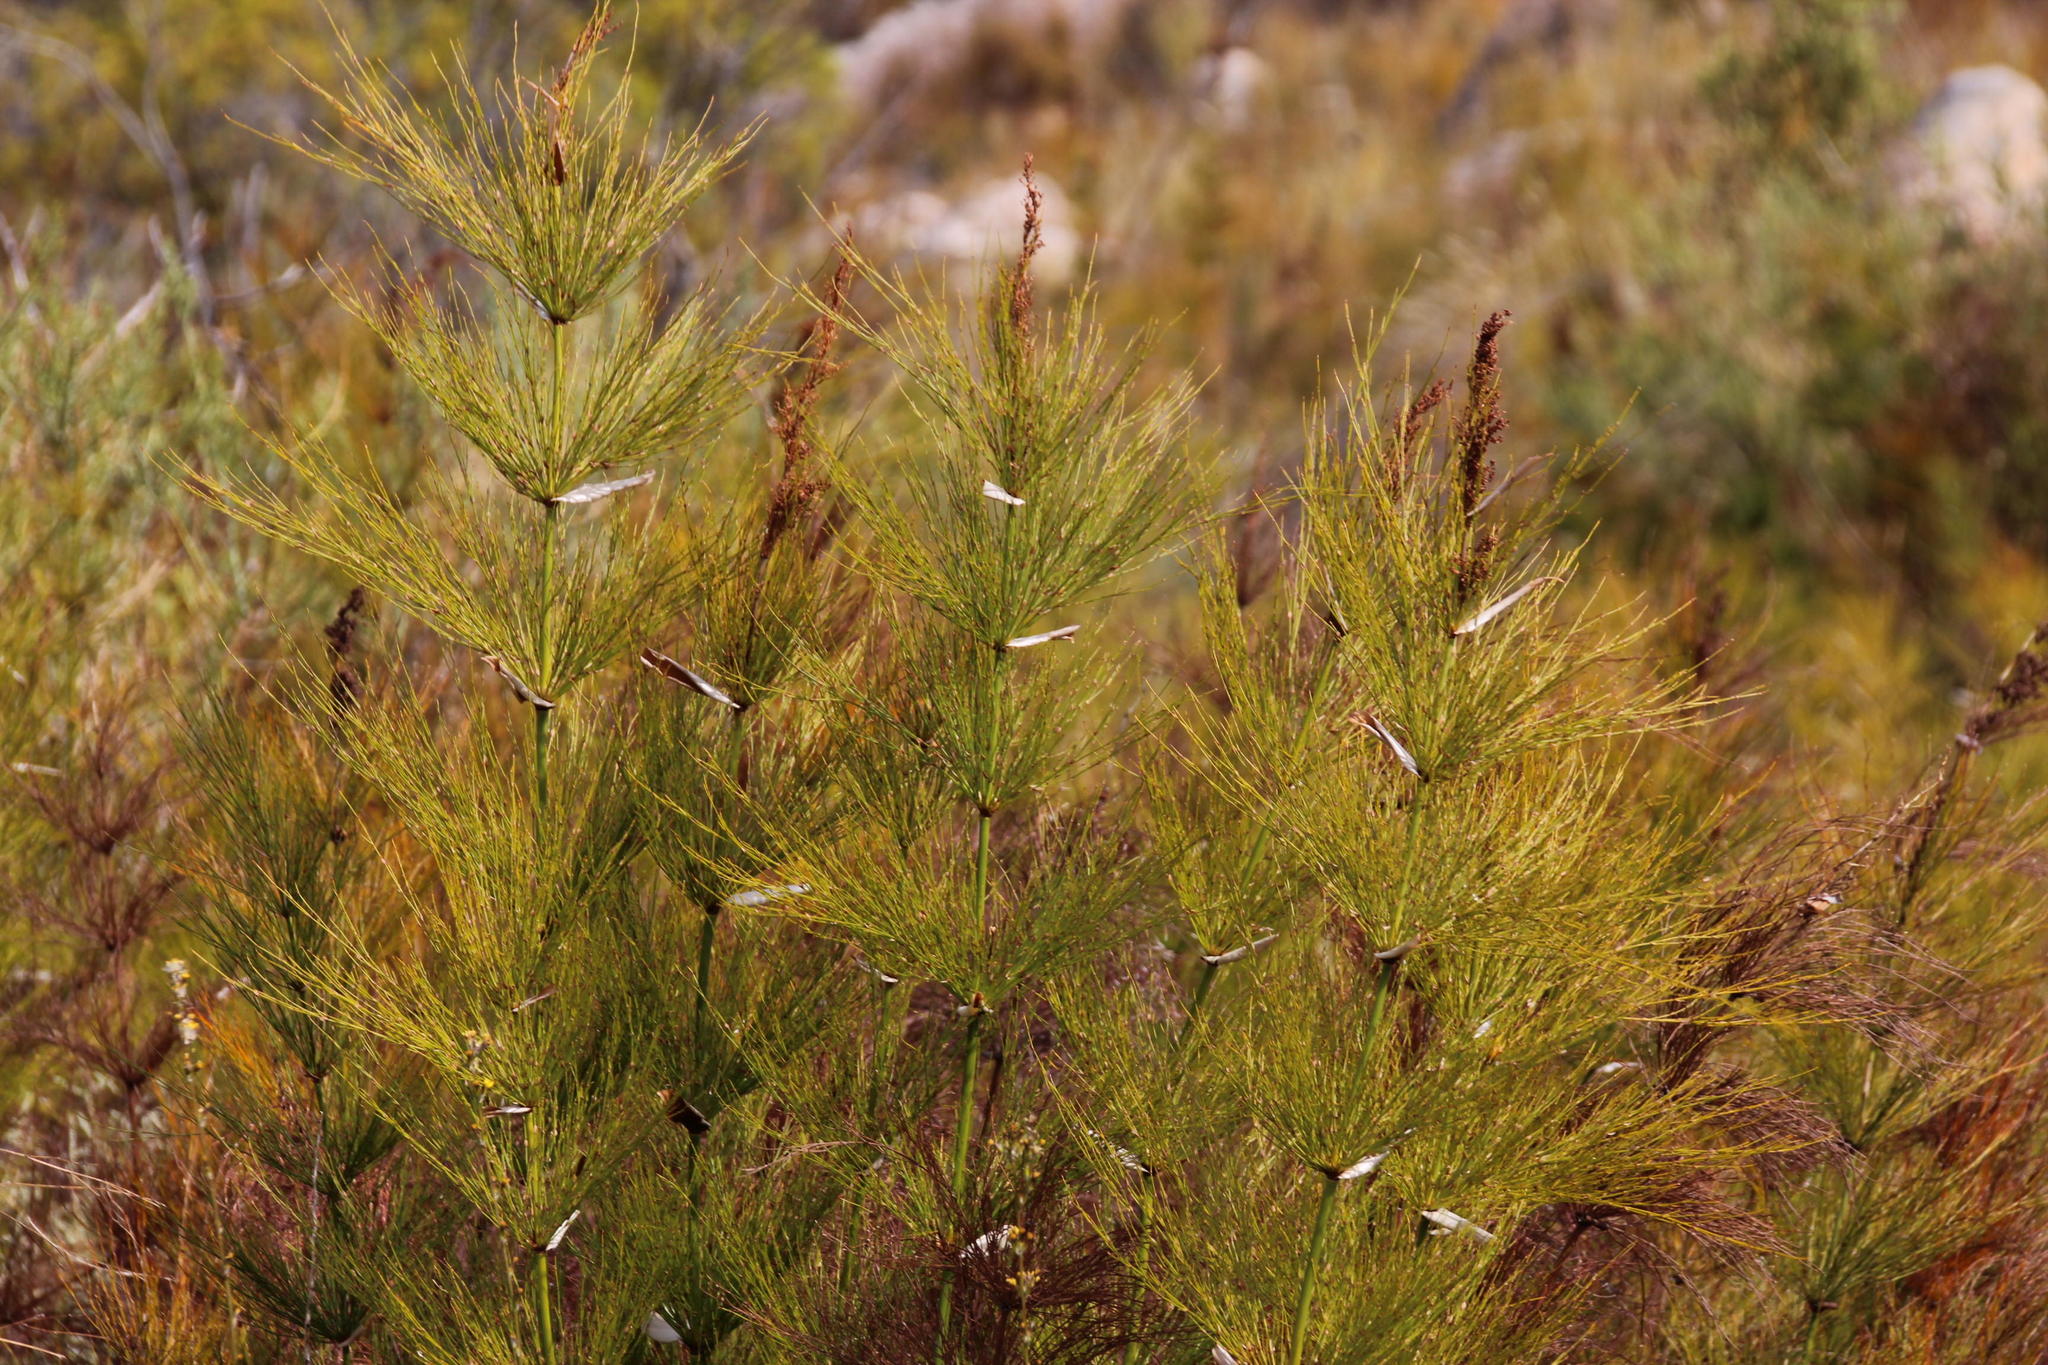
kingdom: Plantae
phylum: Tracheophyta
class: Liliopsida
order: Poales
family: Restionaceae
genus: Elegia
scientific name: Elegia capensis
